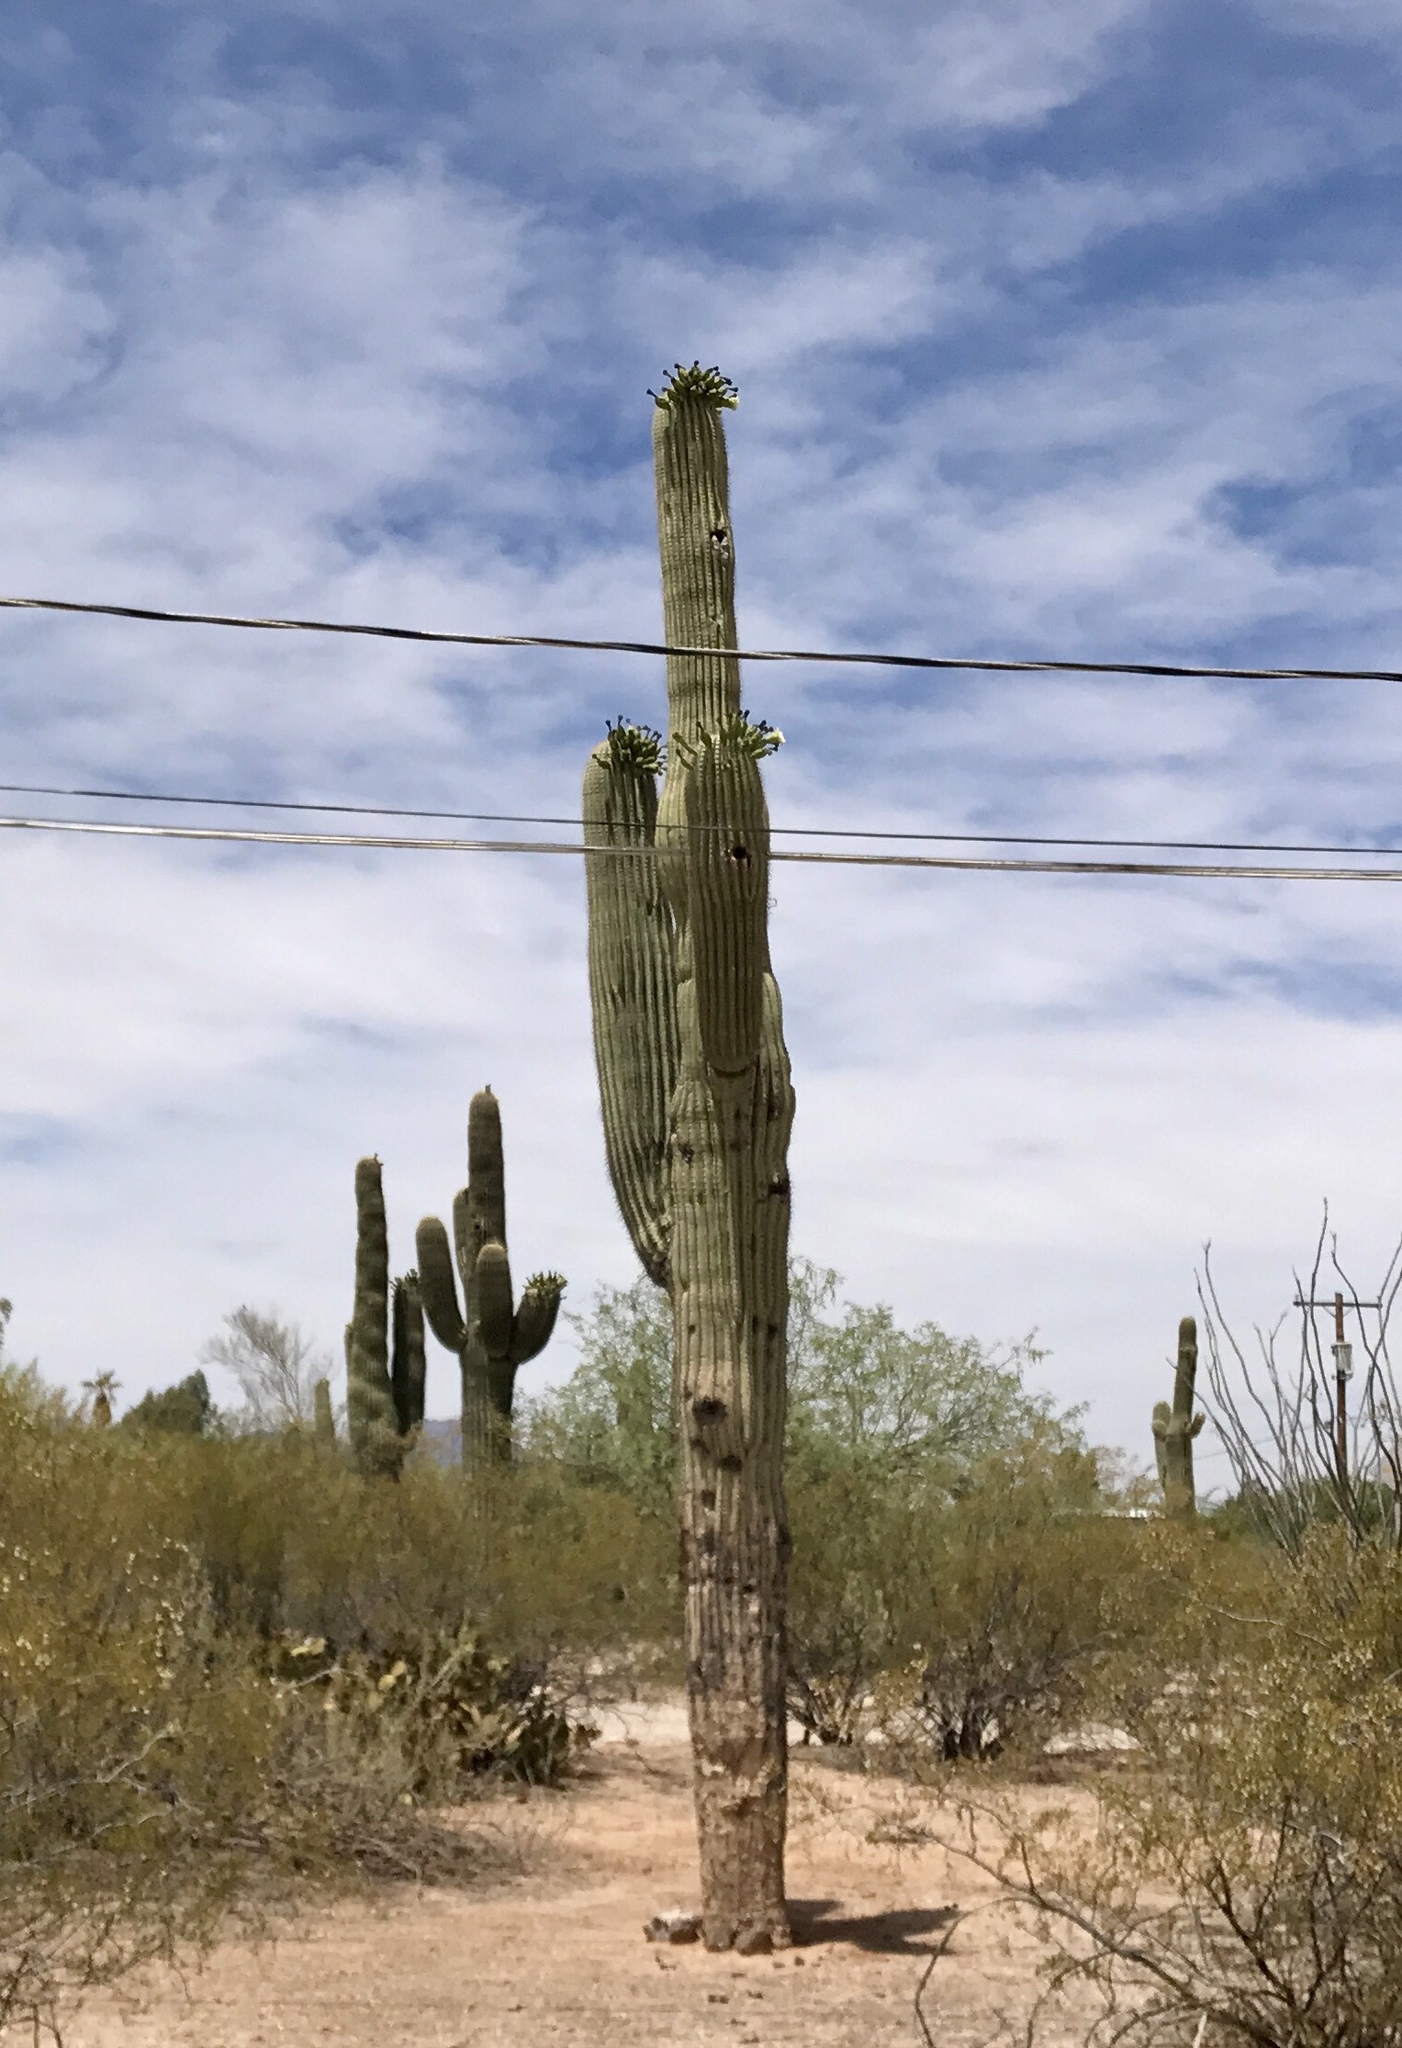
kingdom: Plantae
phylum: Tracheophyta
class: Magnoliopsida
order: Caryophyllales
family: Cactaceae
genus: Carnegiea
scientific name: Carnegiea gigantea
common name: Saguaro
